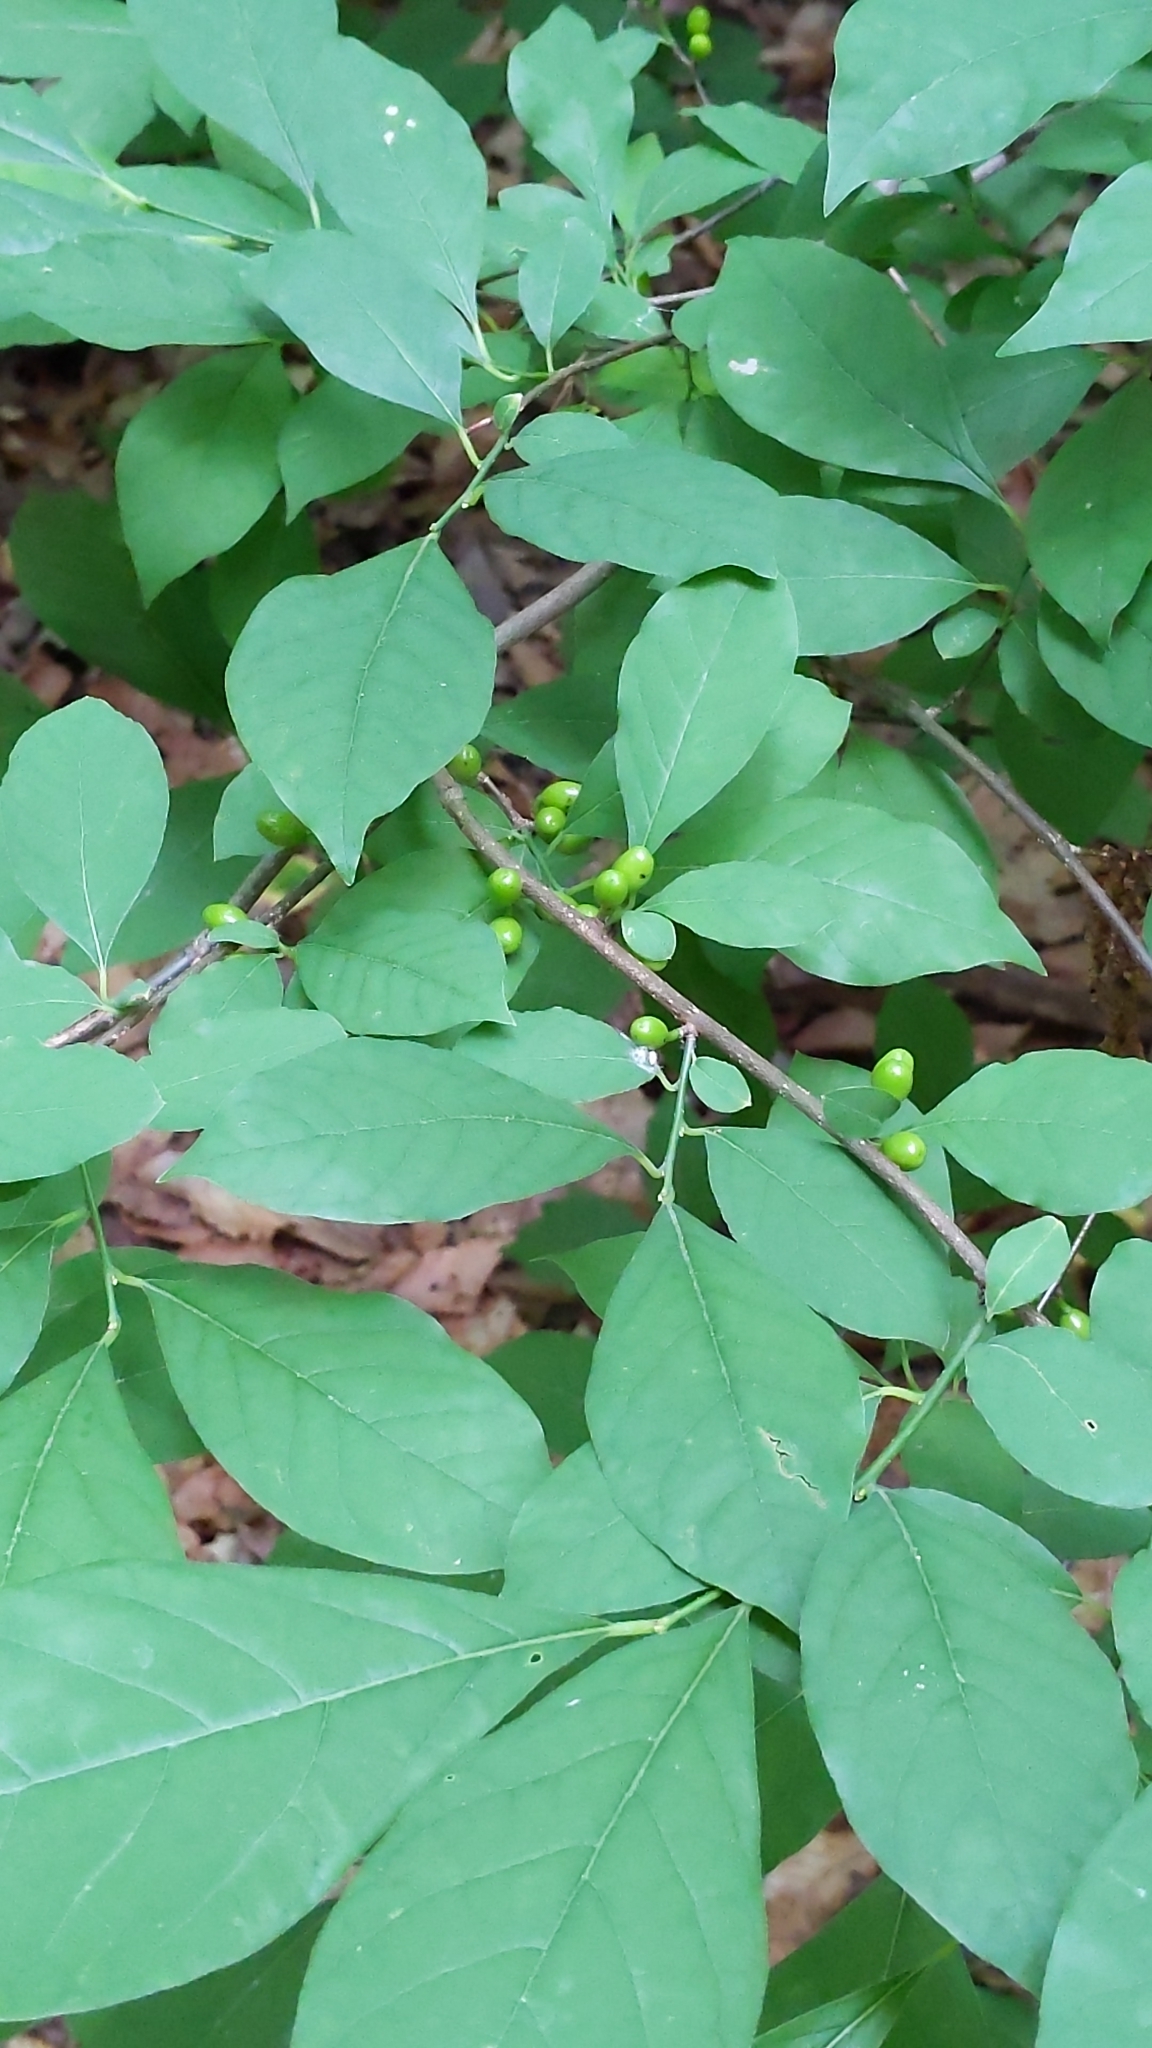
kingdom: Plantae
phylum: Tracheophyta
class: Magnoliopsida
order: Laurales
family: Lauraceae
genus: Lindera
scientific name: Lindera benzoin
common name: Spicebush
